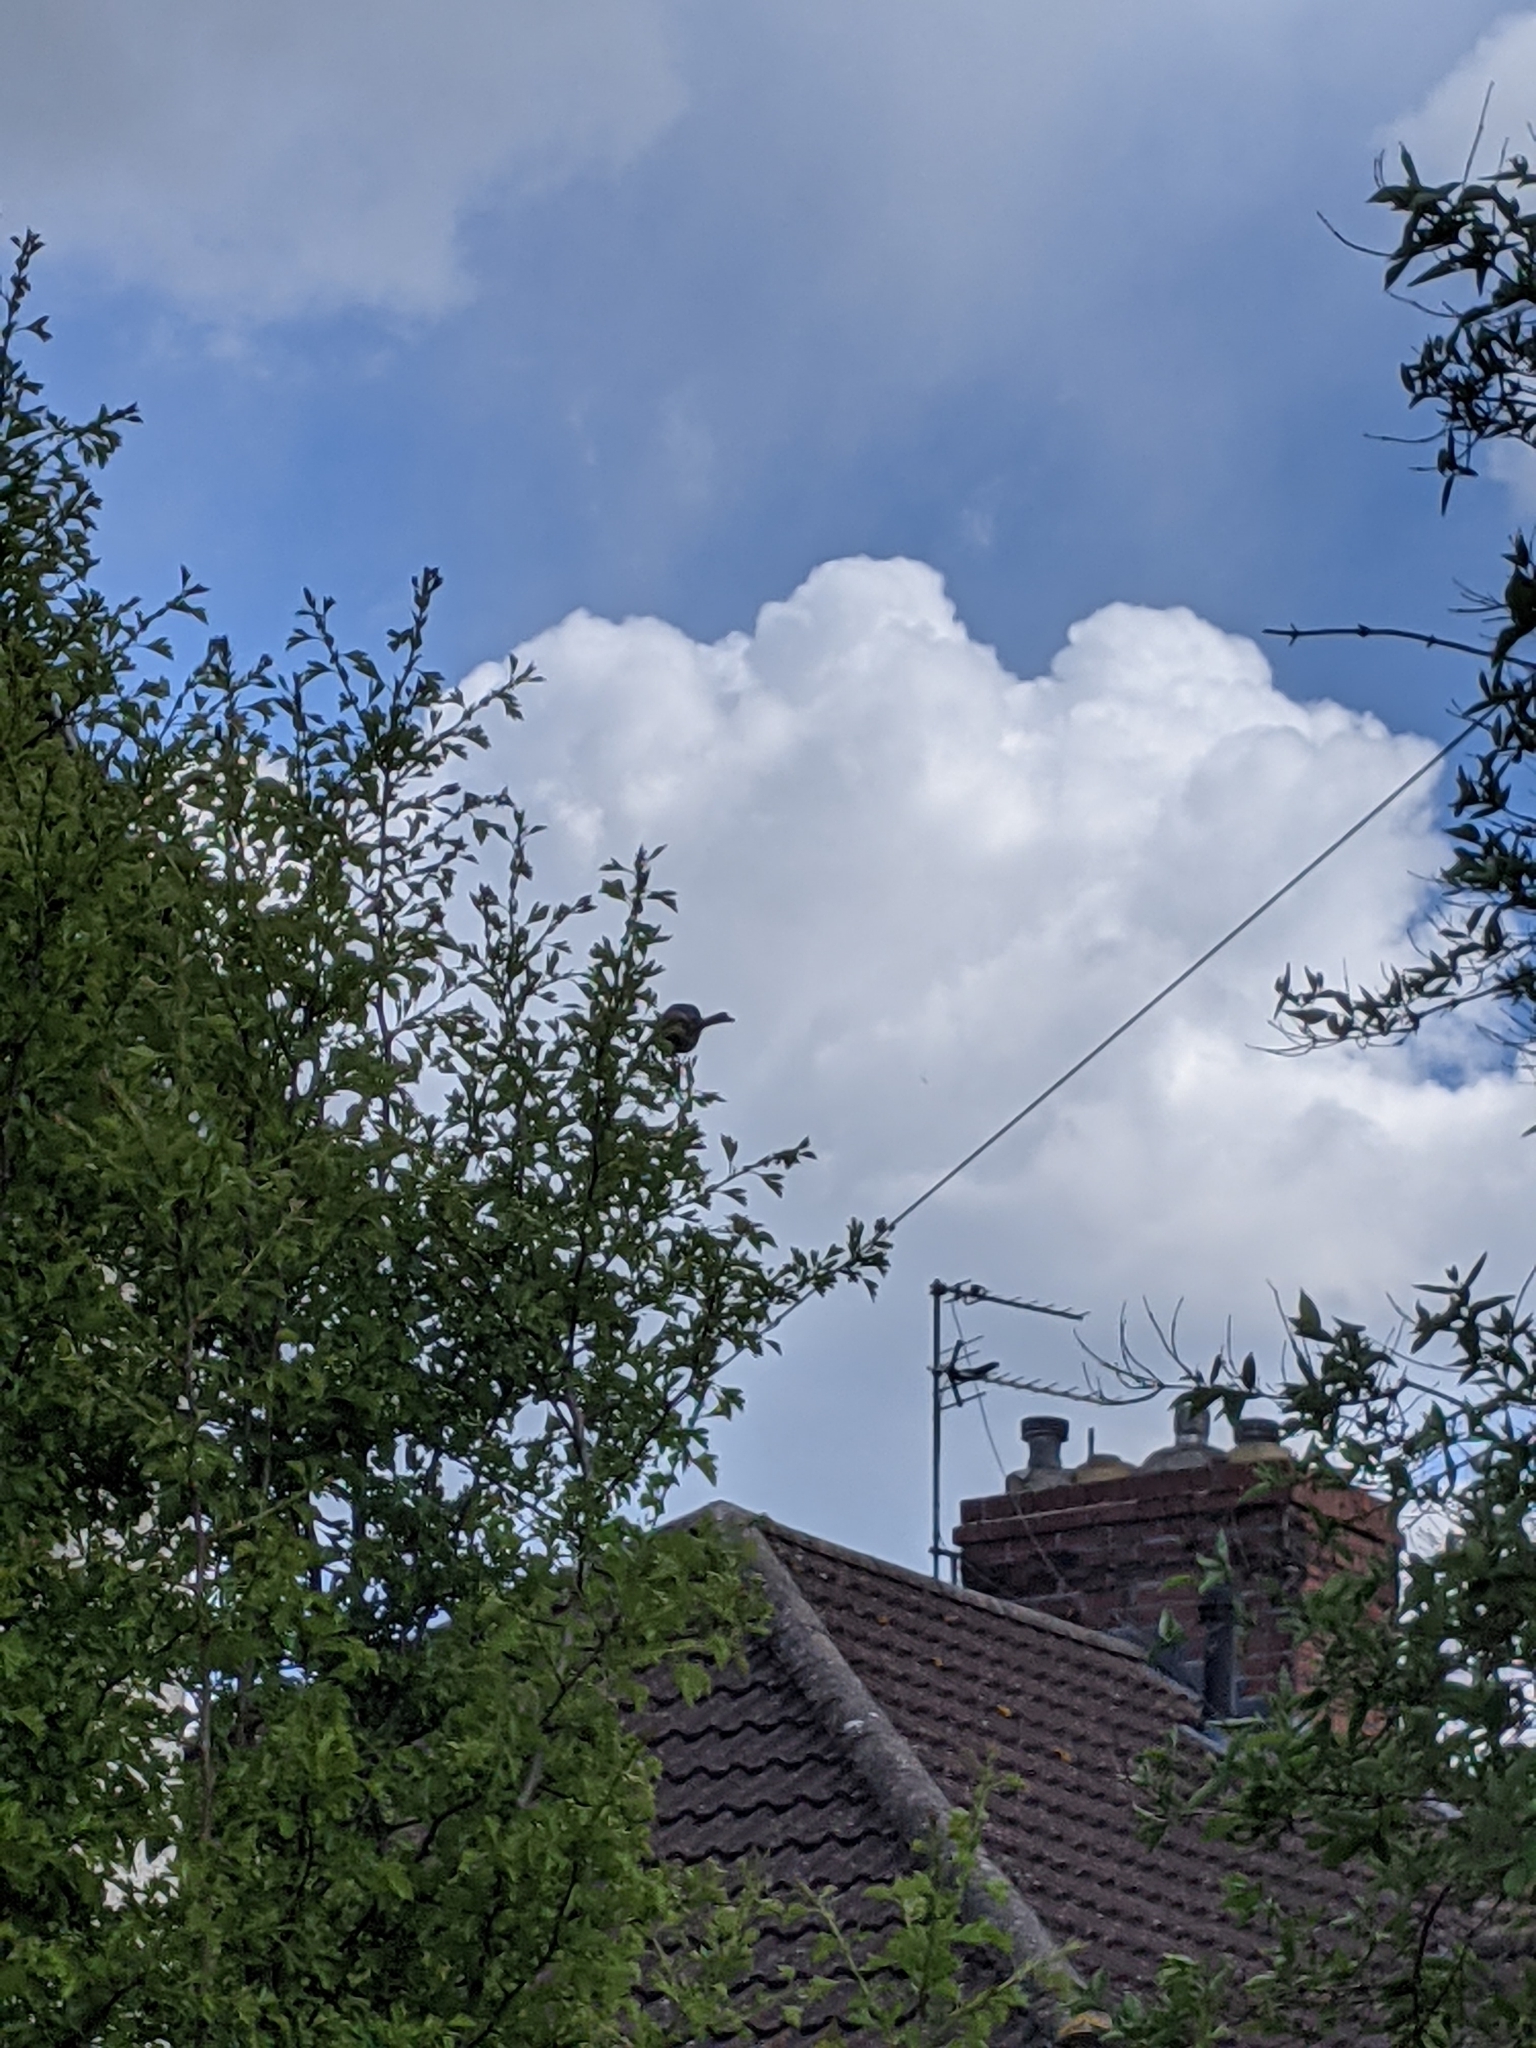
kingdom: Animalia
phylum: Chordata
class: Aves
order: Passeriformes
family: Aegithalidae
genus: Aegithalos
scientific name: Aegithalos caudatus
